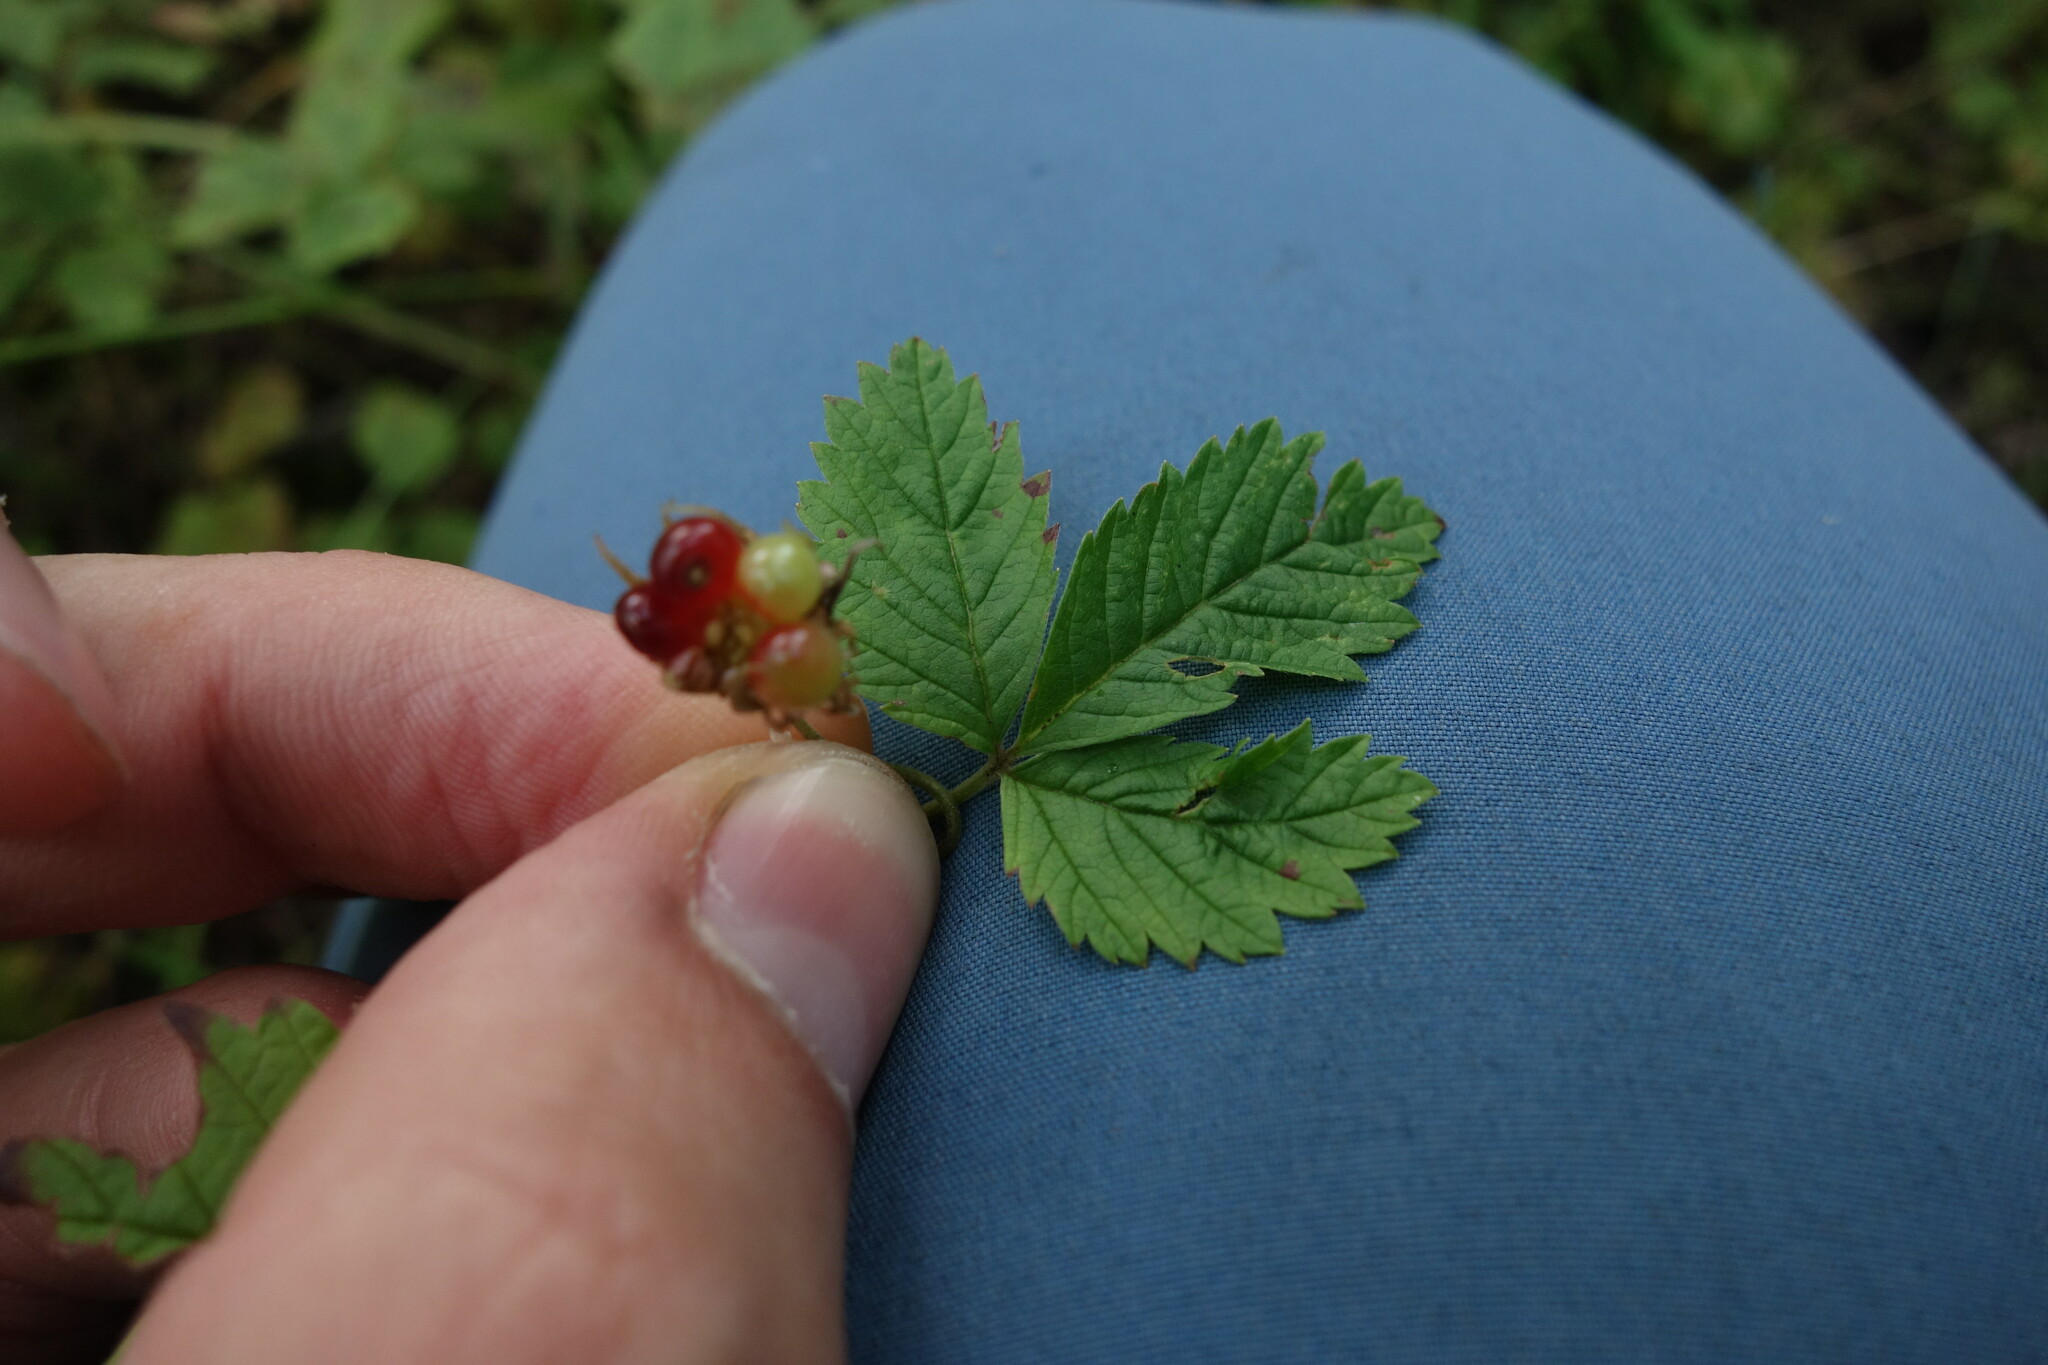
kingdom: Plantae
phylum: Tracheophyta
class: Magnoliopsida
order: Rosales
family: Rosaceae
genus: Rubus
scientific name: Rubus arcticus
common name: Arctic bramble
